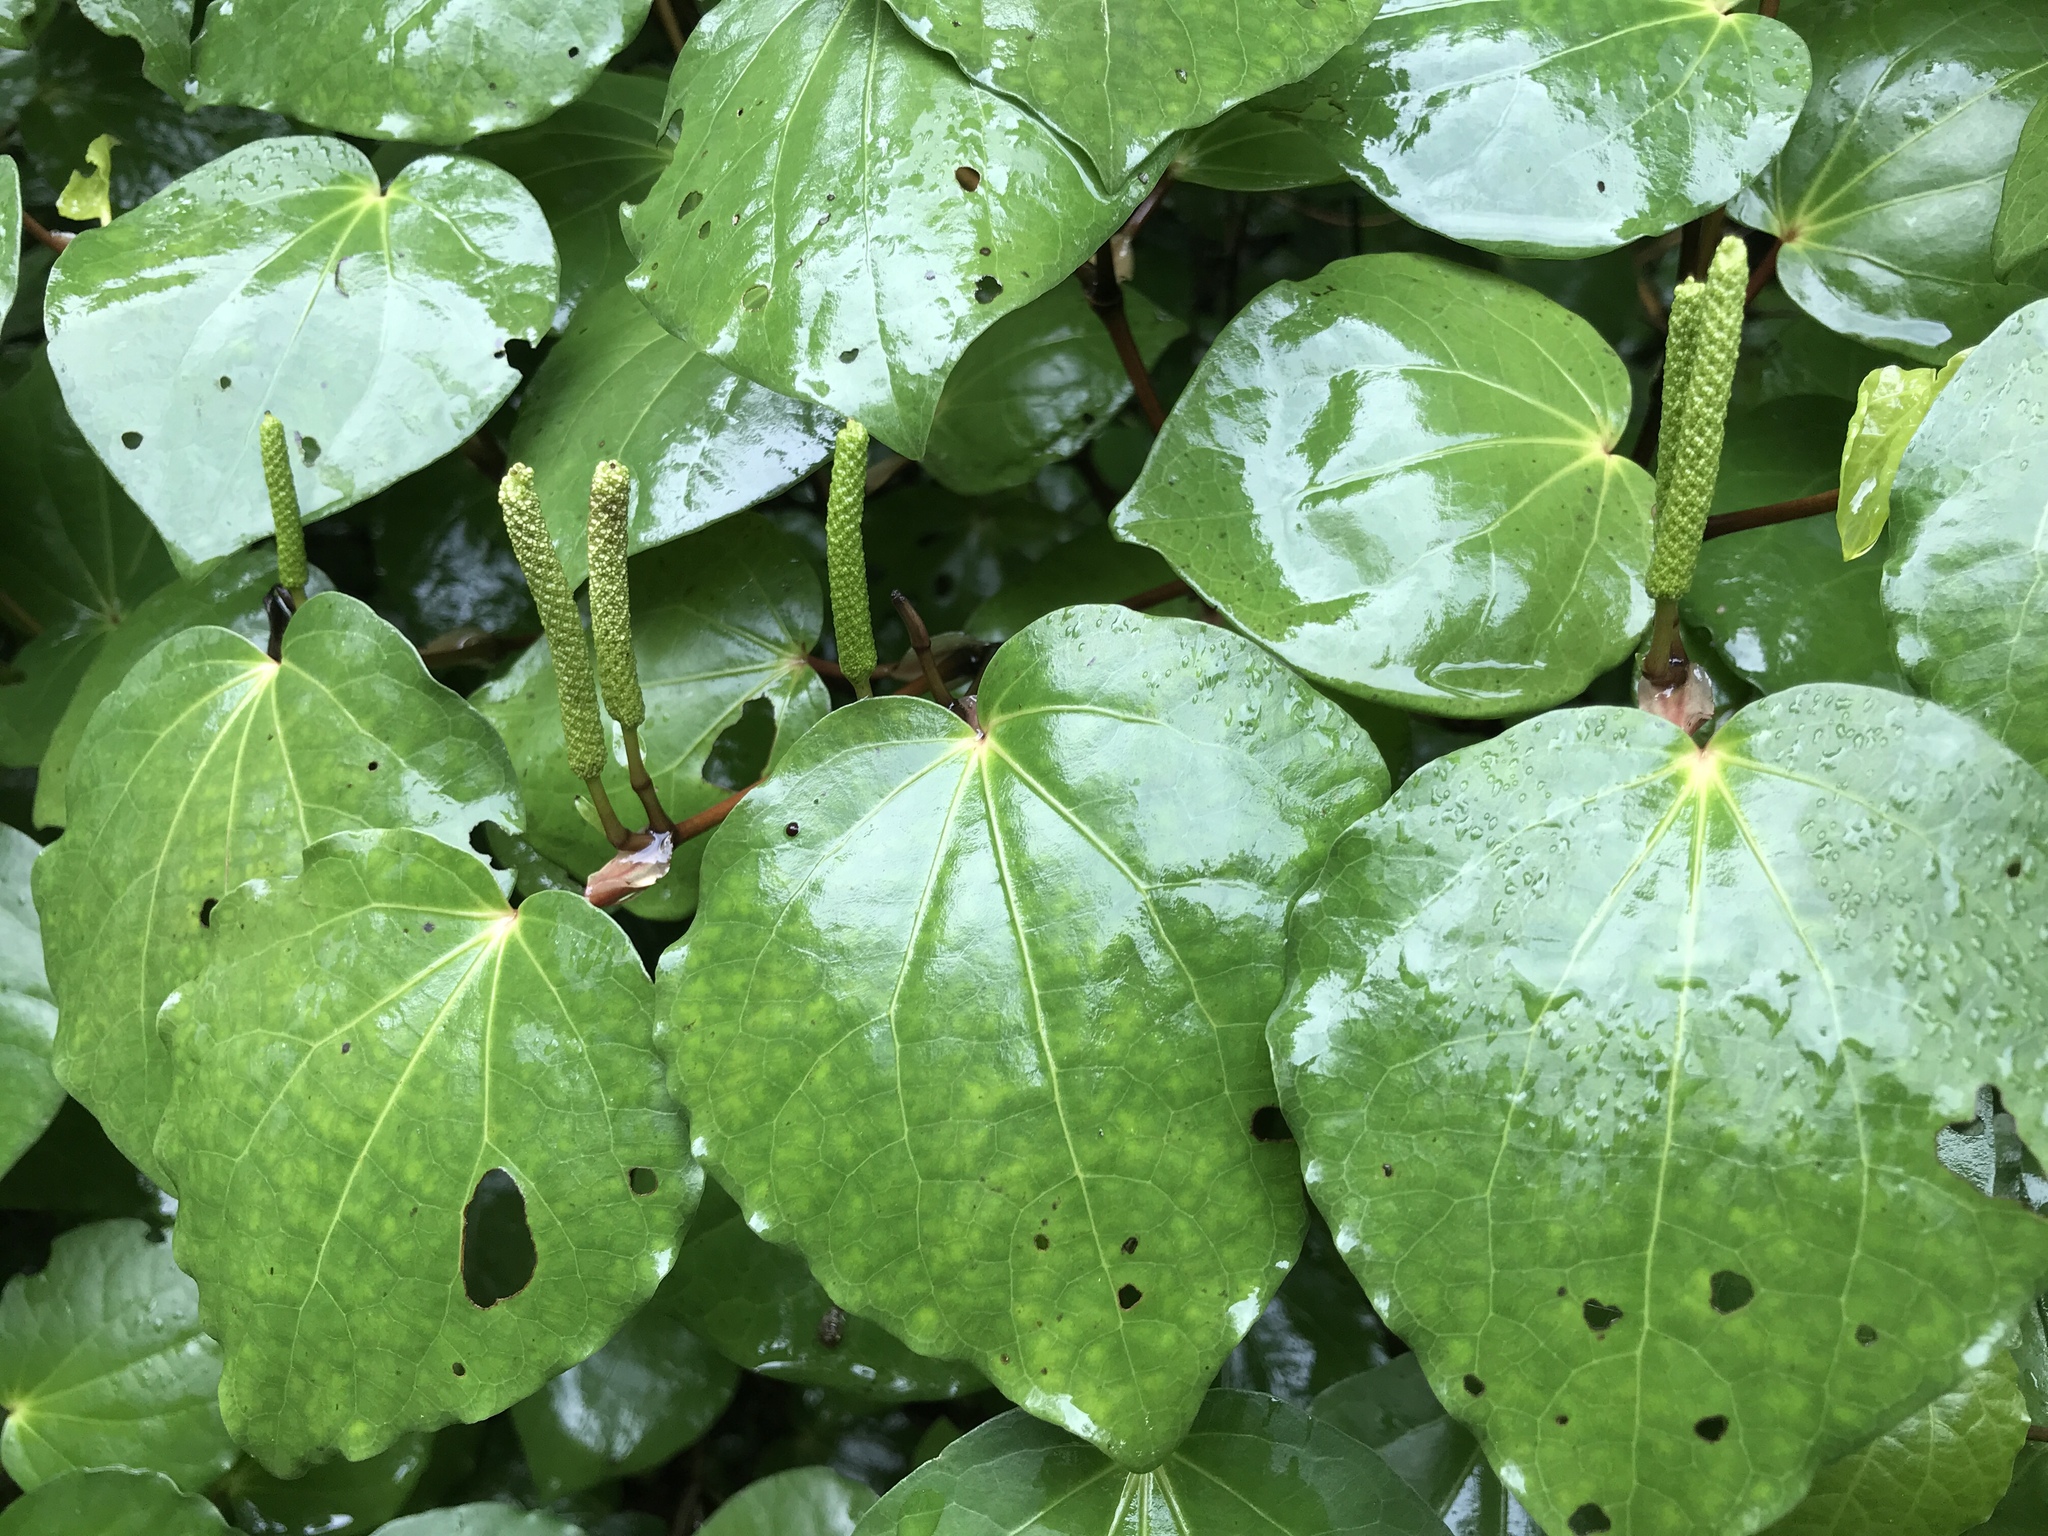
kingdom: Plantae
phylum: Tracheophyta
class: Magnoliopsida
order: Piperales
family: Piperaceae
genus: Macropiper
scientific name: Macropiper excelsum
